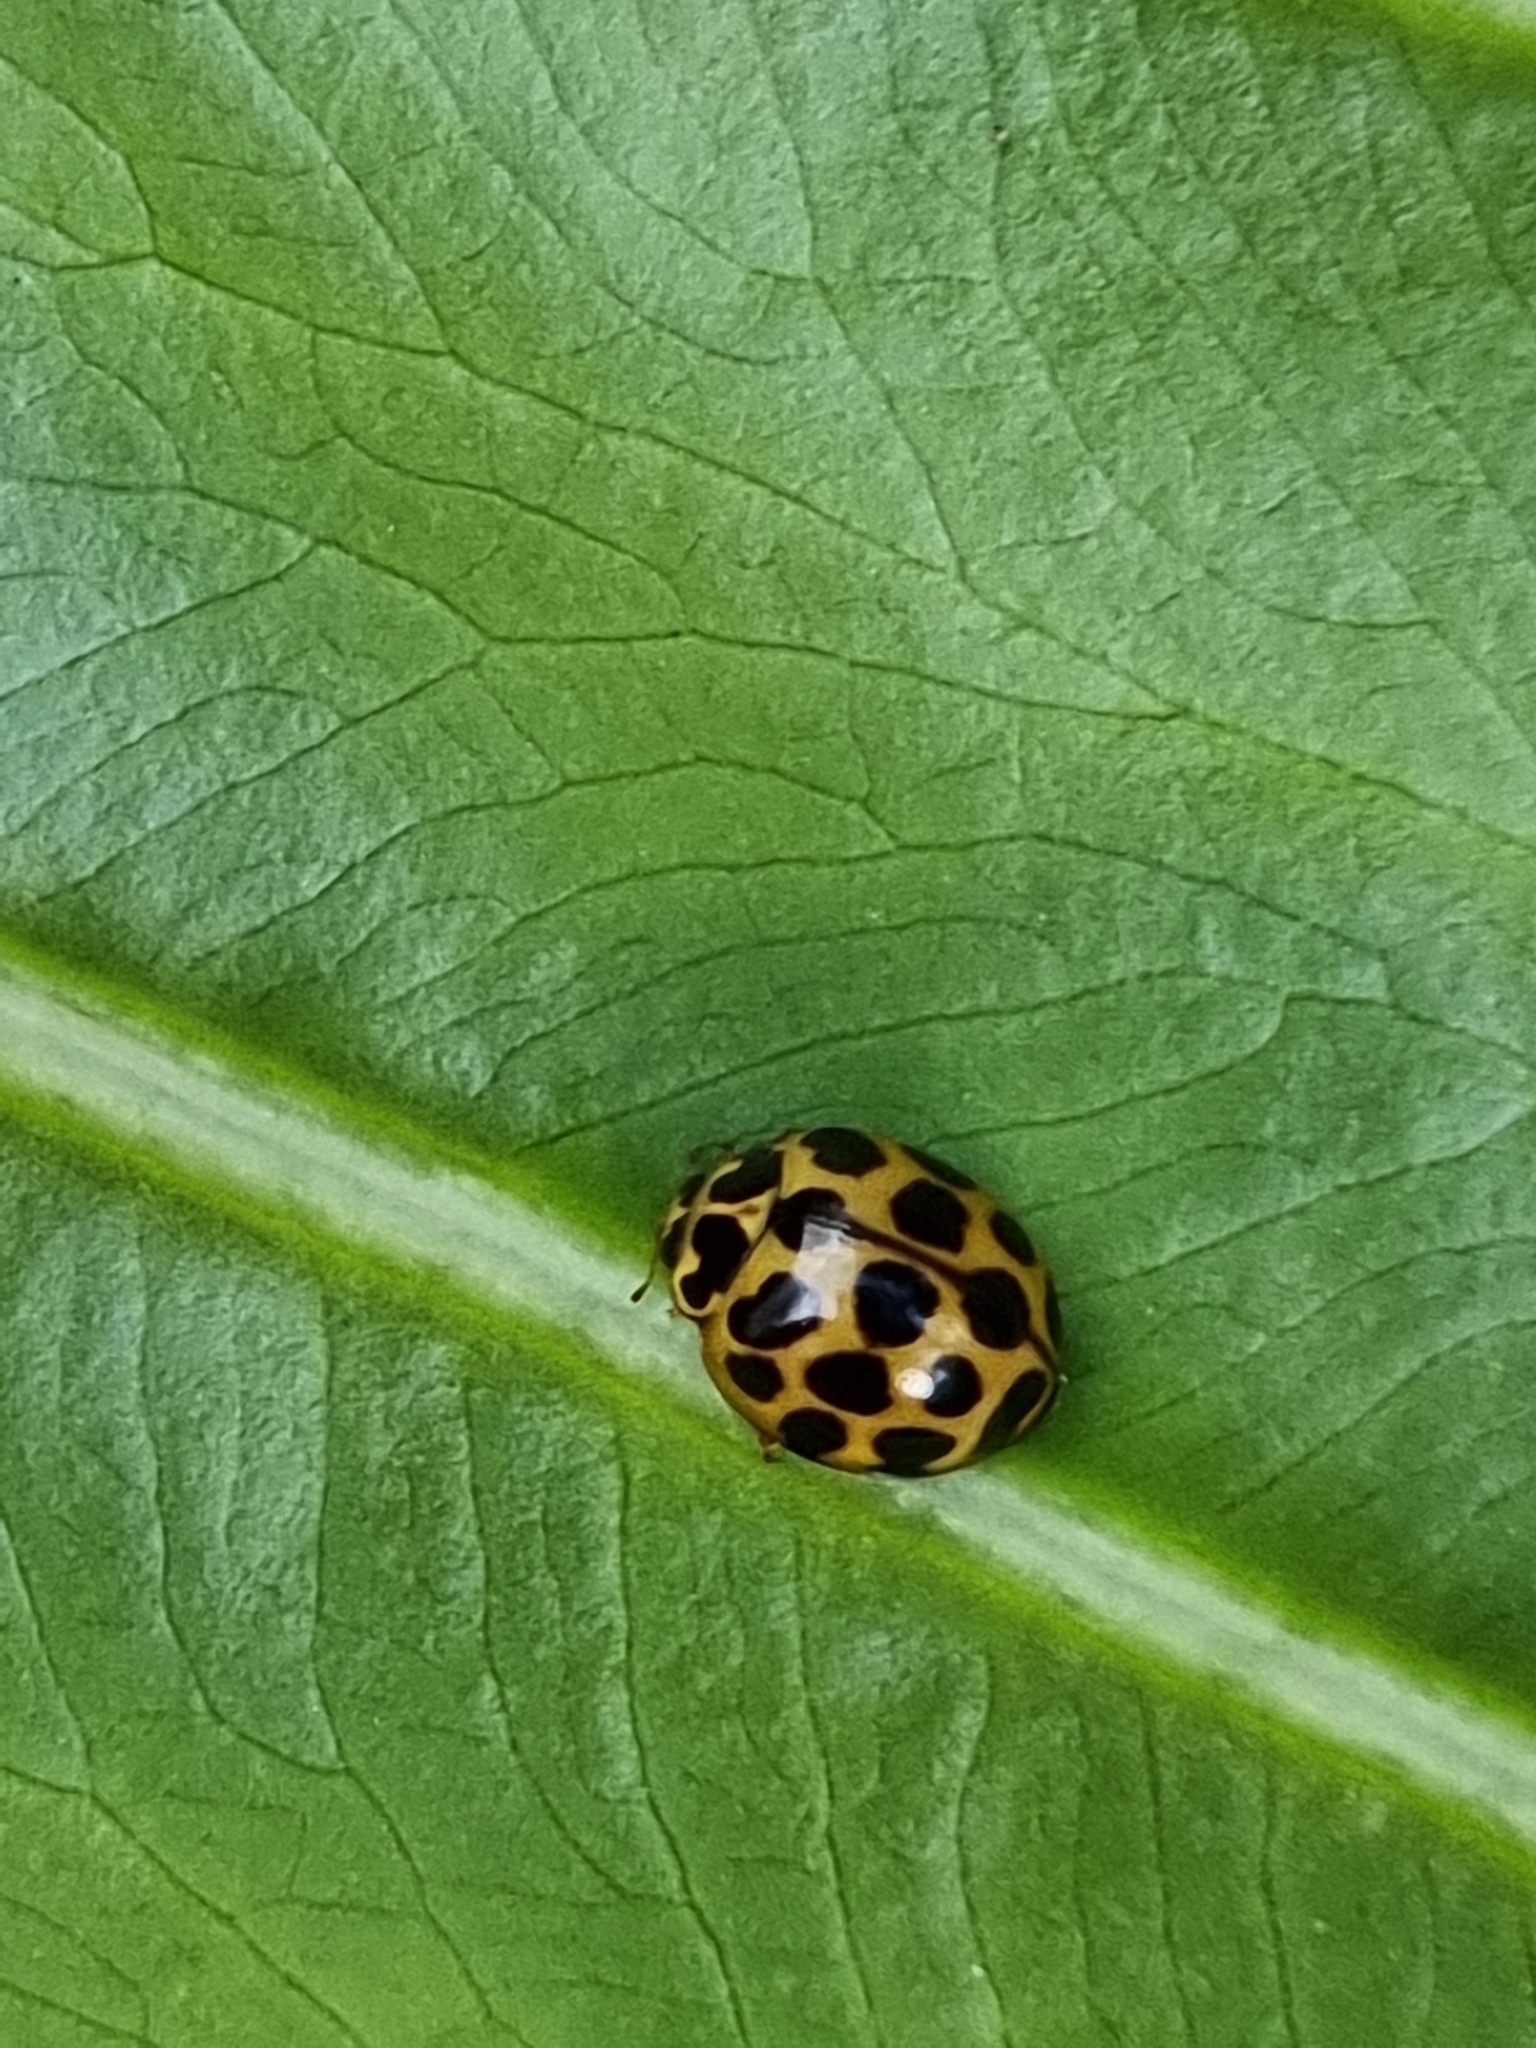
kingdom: Animalia
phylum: Arthropoda
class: Insecta
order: Coleoptera
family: Coccinellidae
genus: Harmonia
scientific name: Harmonia conformis
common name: Common spotted ladybird beetle
